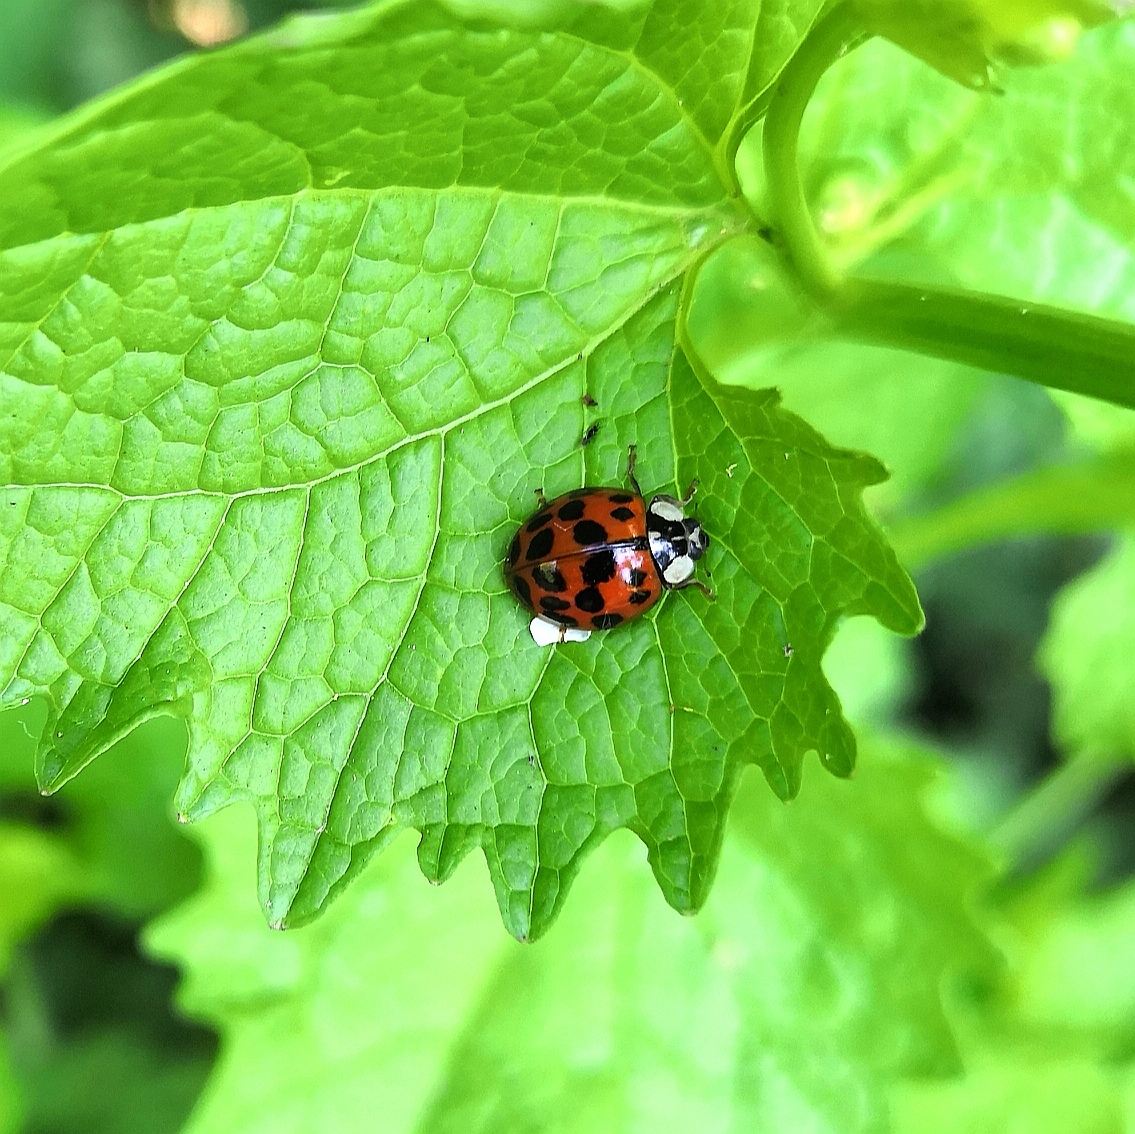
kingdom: Animalia
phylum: Arthropoda
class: Insecta
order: Coleoptera
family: Coccinellidae
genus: Harmonia
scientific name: Harmonia axyridis
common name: Harlequin ladybird
